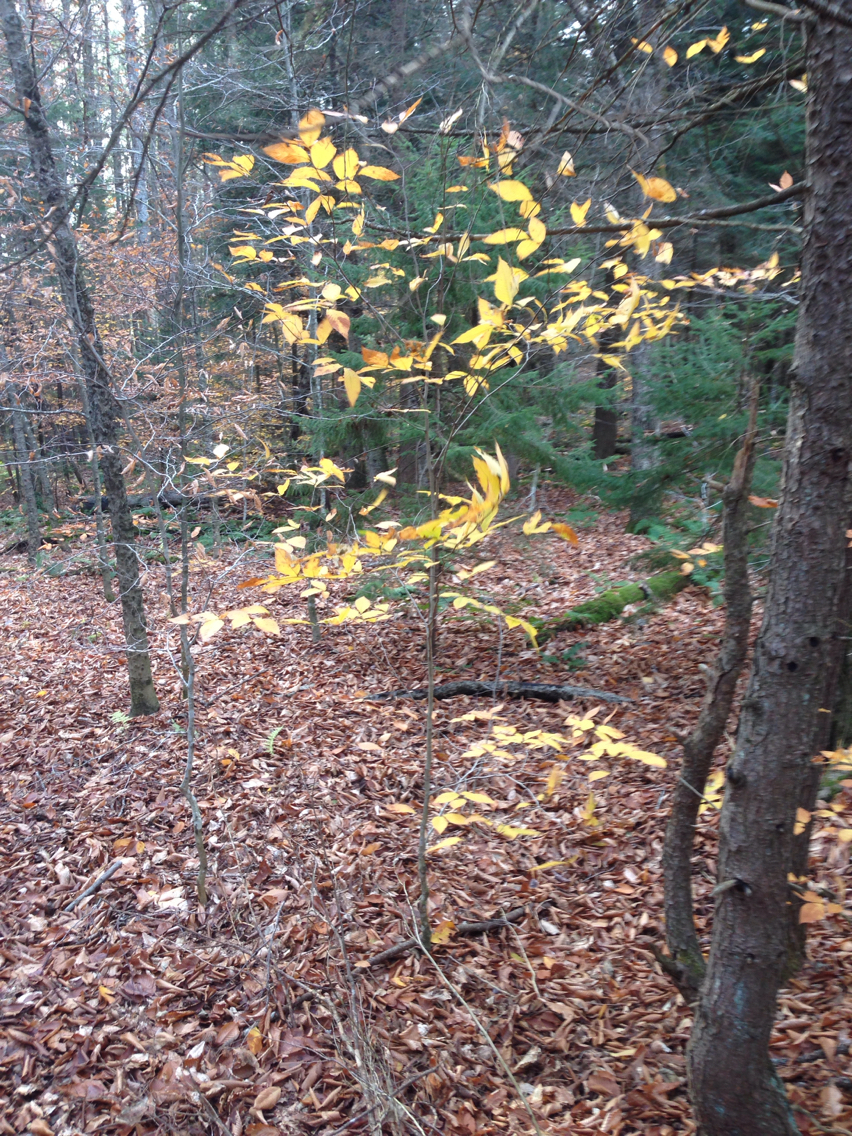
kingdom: Plantae
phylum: Tracheophyta
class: Magnoliopsida
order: Fagales
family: Fagaceae
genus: Fagus
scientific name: Fagus grandifolia
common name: American beech
